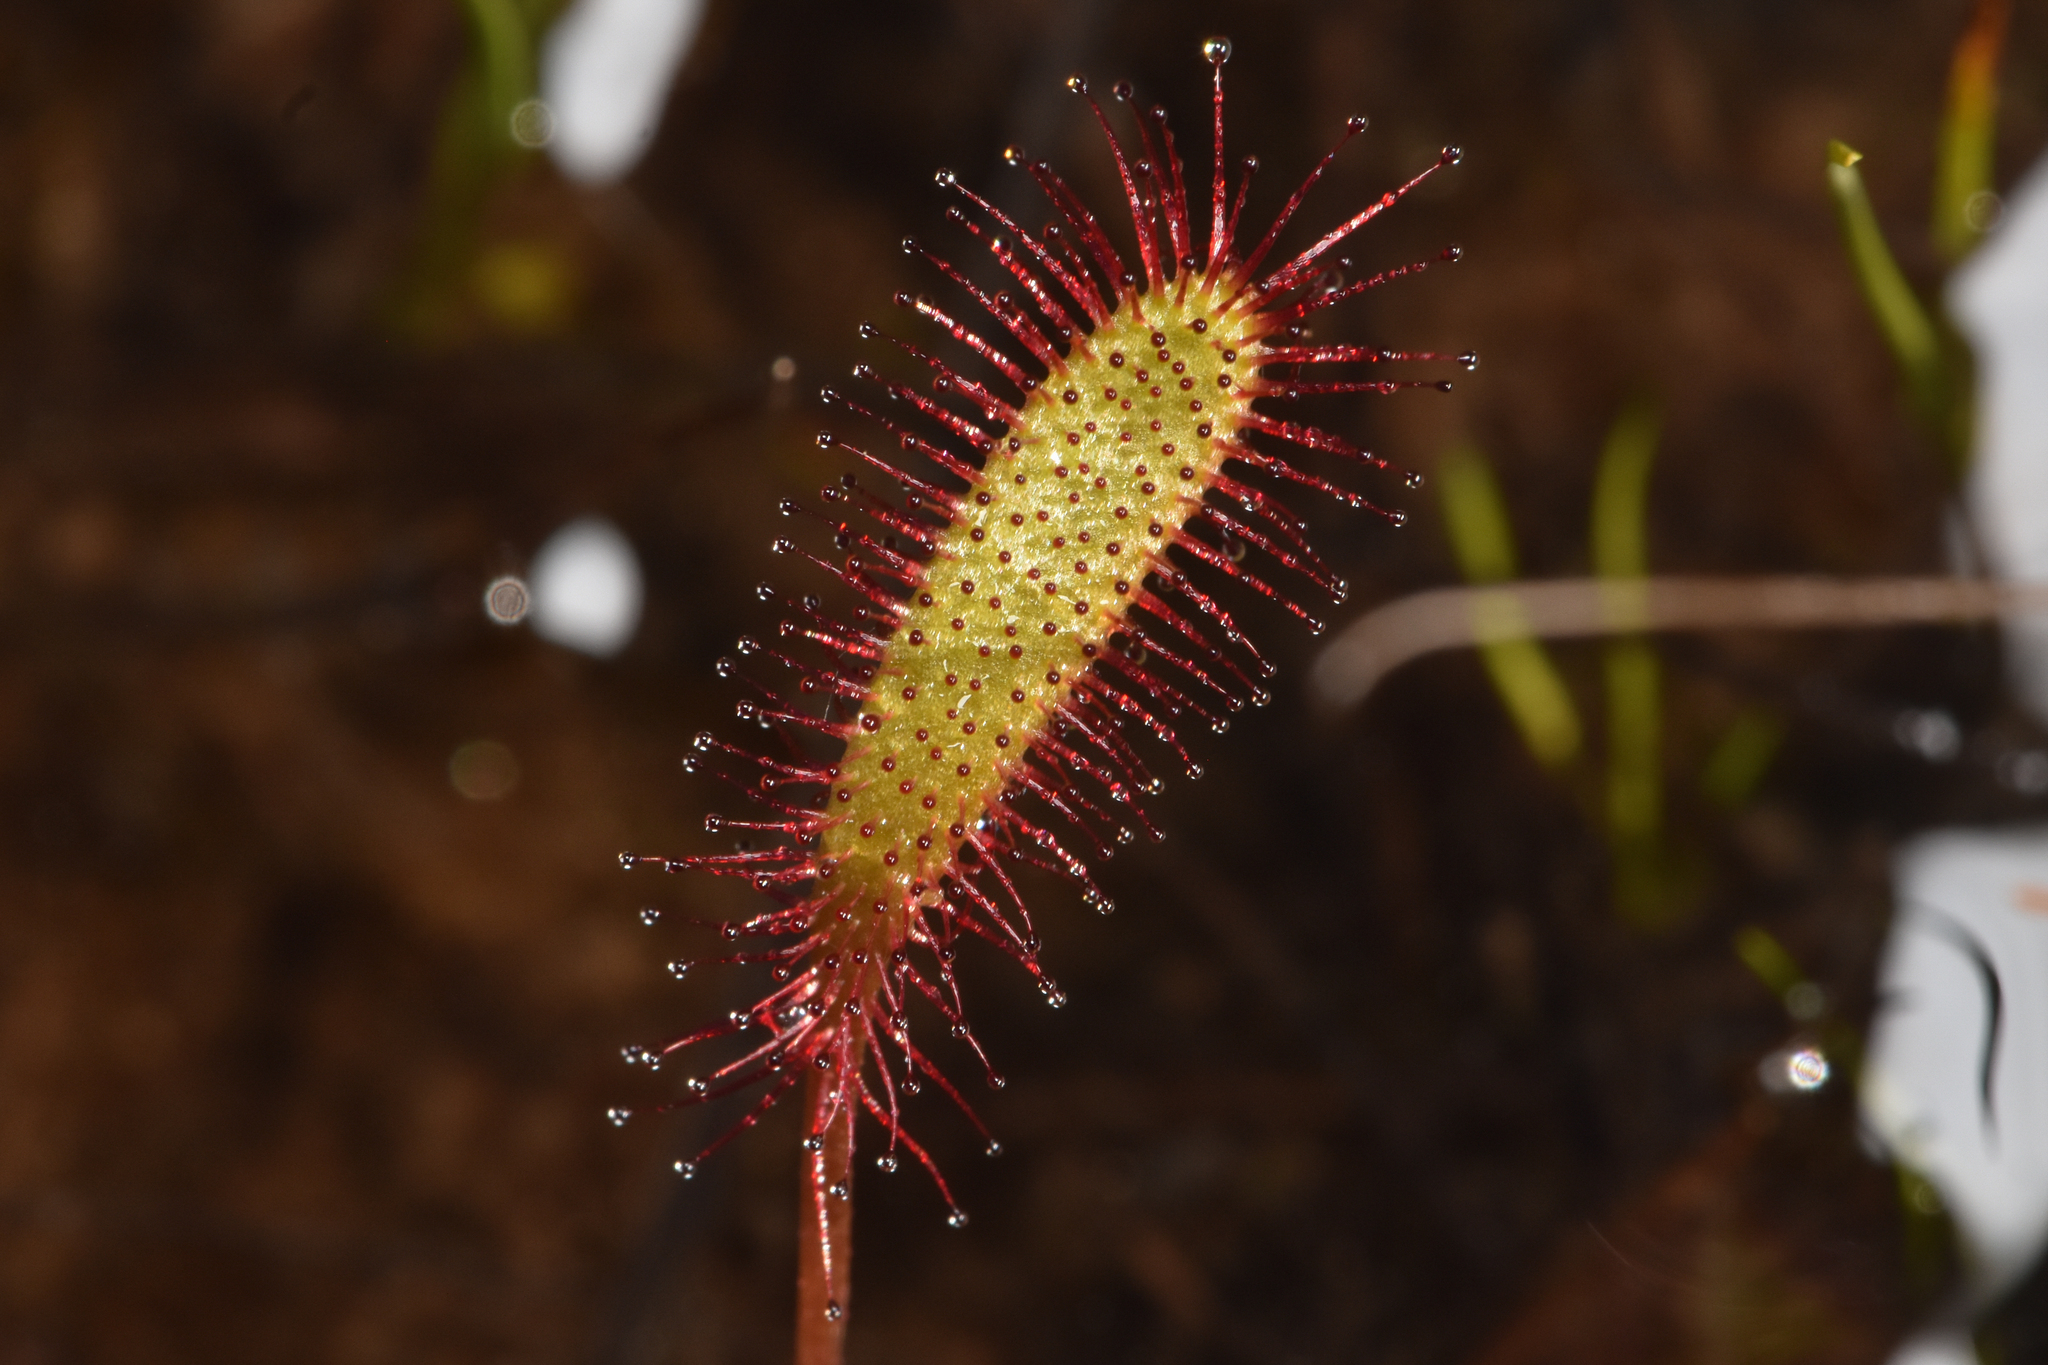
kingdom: Plantae
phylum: Tracheophyta
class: Magnoliopsida
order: Caryophyllales
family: Droseraceae
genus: Drosera
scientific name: Drosera anglica
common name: Great sundew
